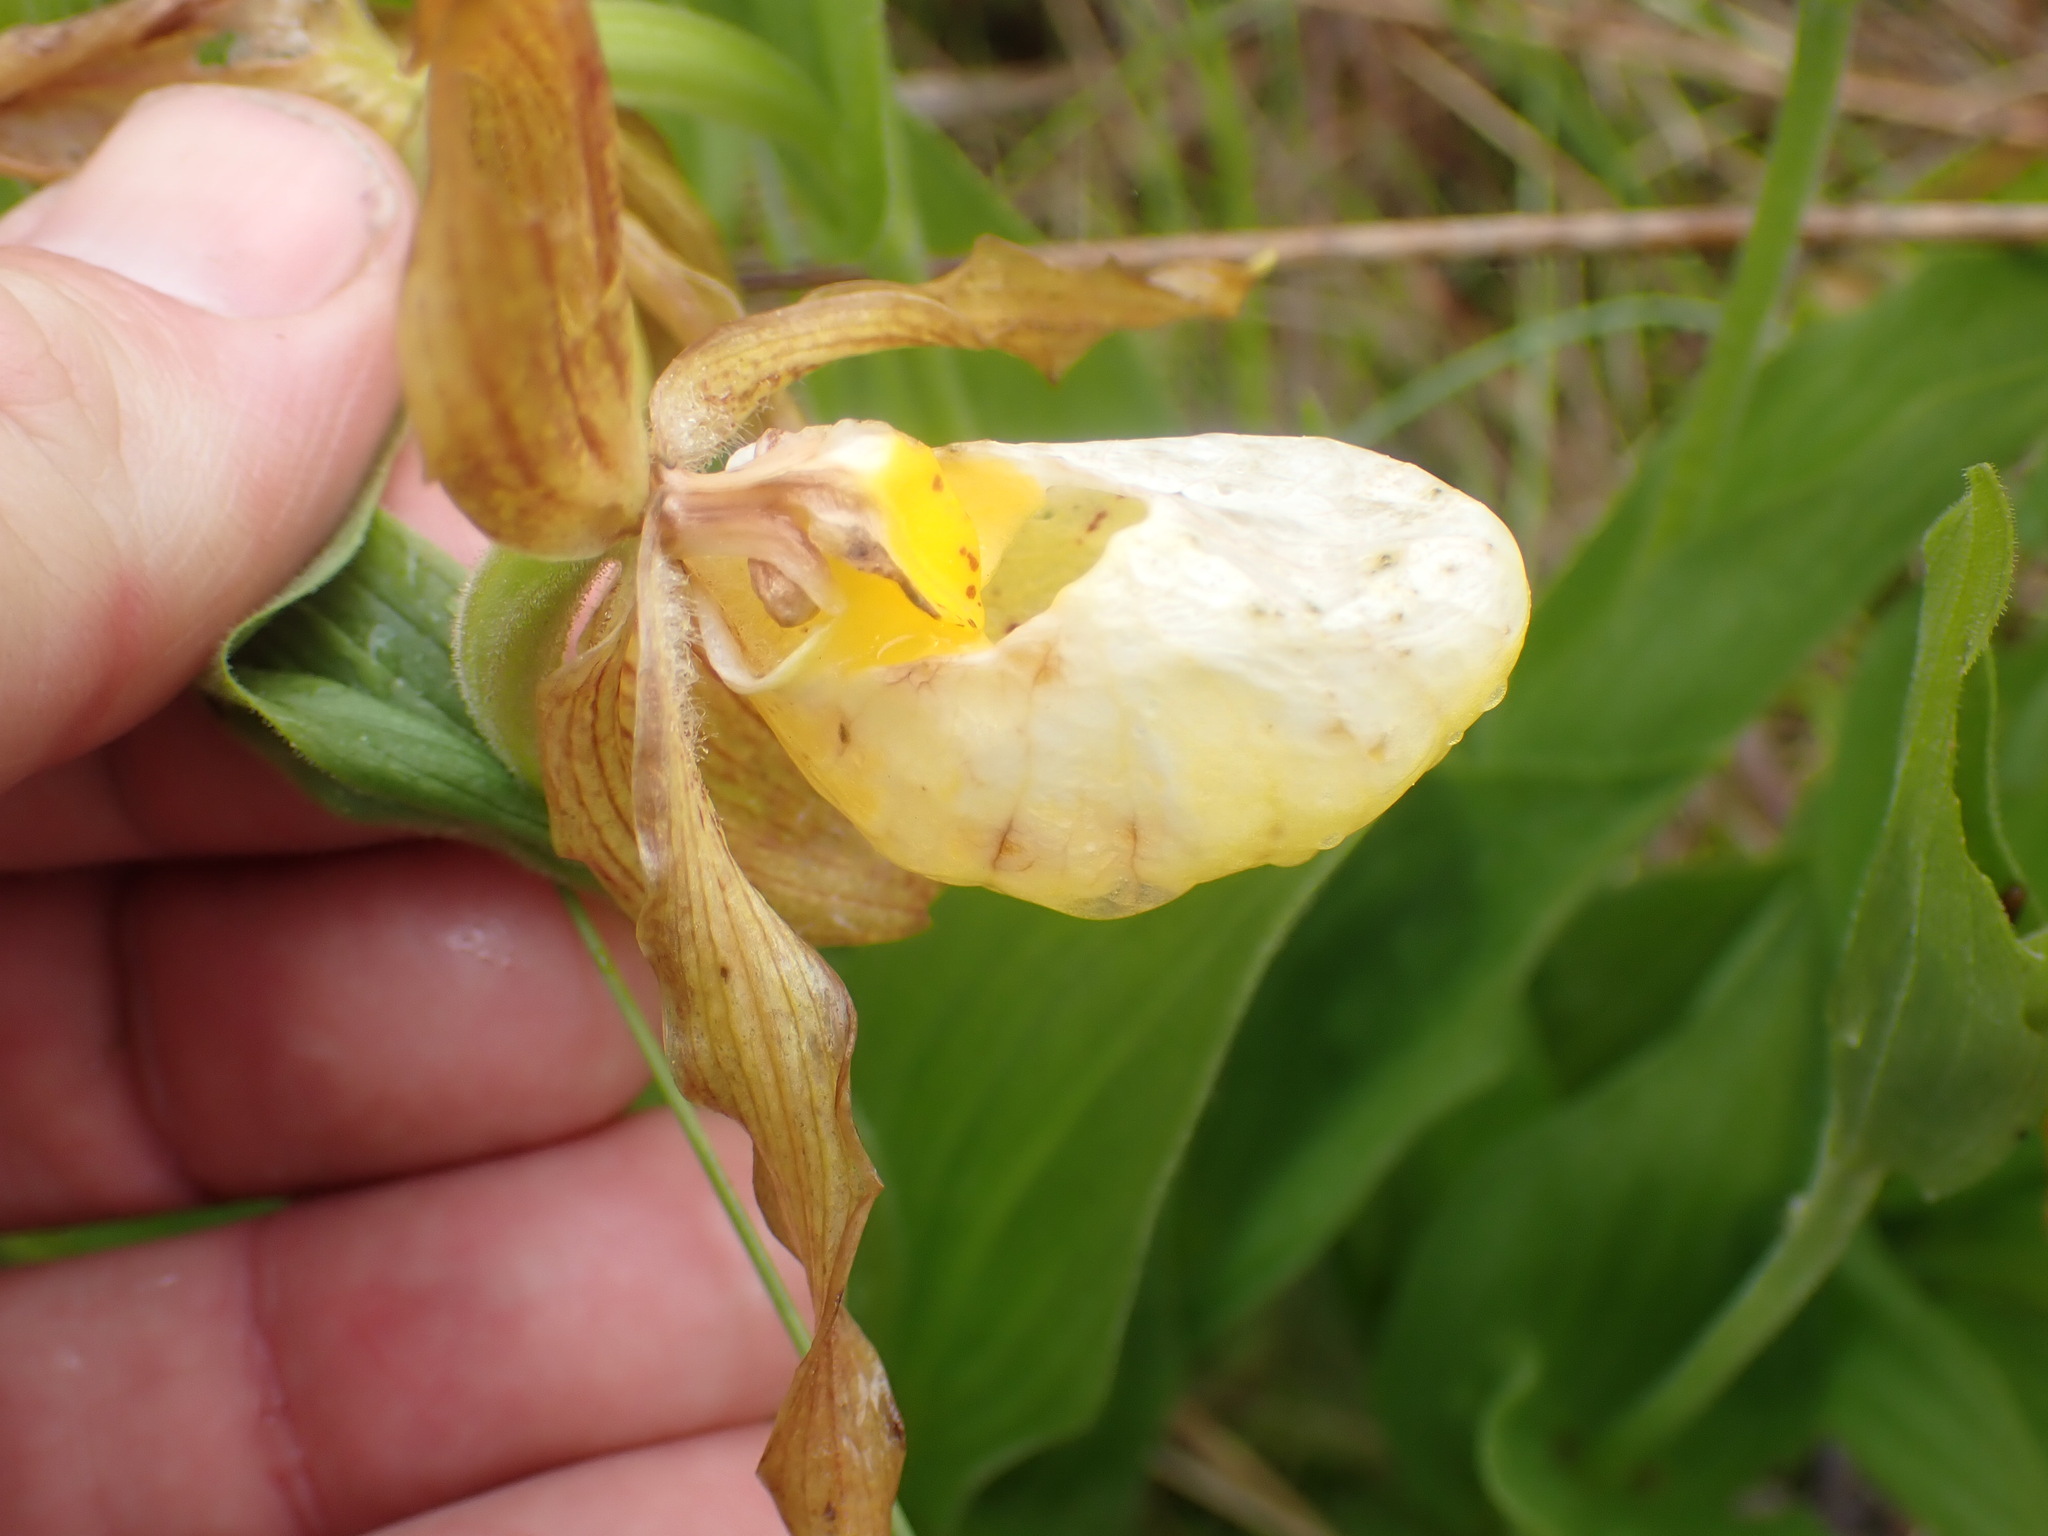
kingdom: Plantae
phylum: Tracheophyta
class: Liliopsida
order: Asparagales
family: Orchidaceae
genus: Cypripedium
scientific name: Cypripedium parviflorum
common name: American yellow lady's-slipper
